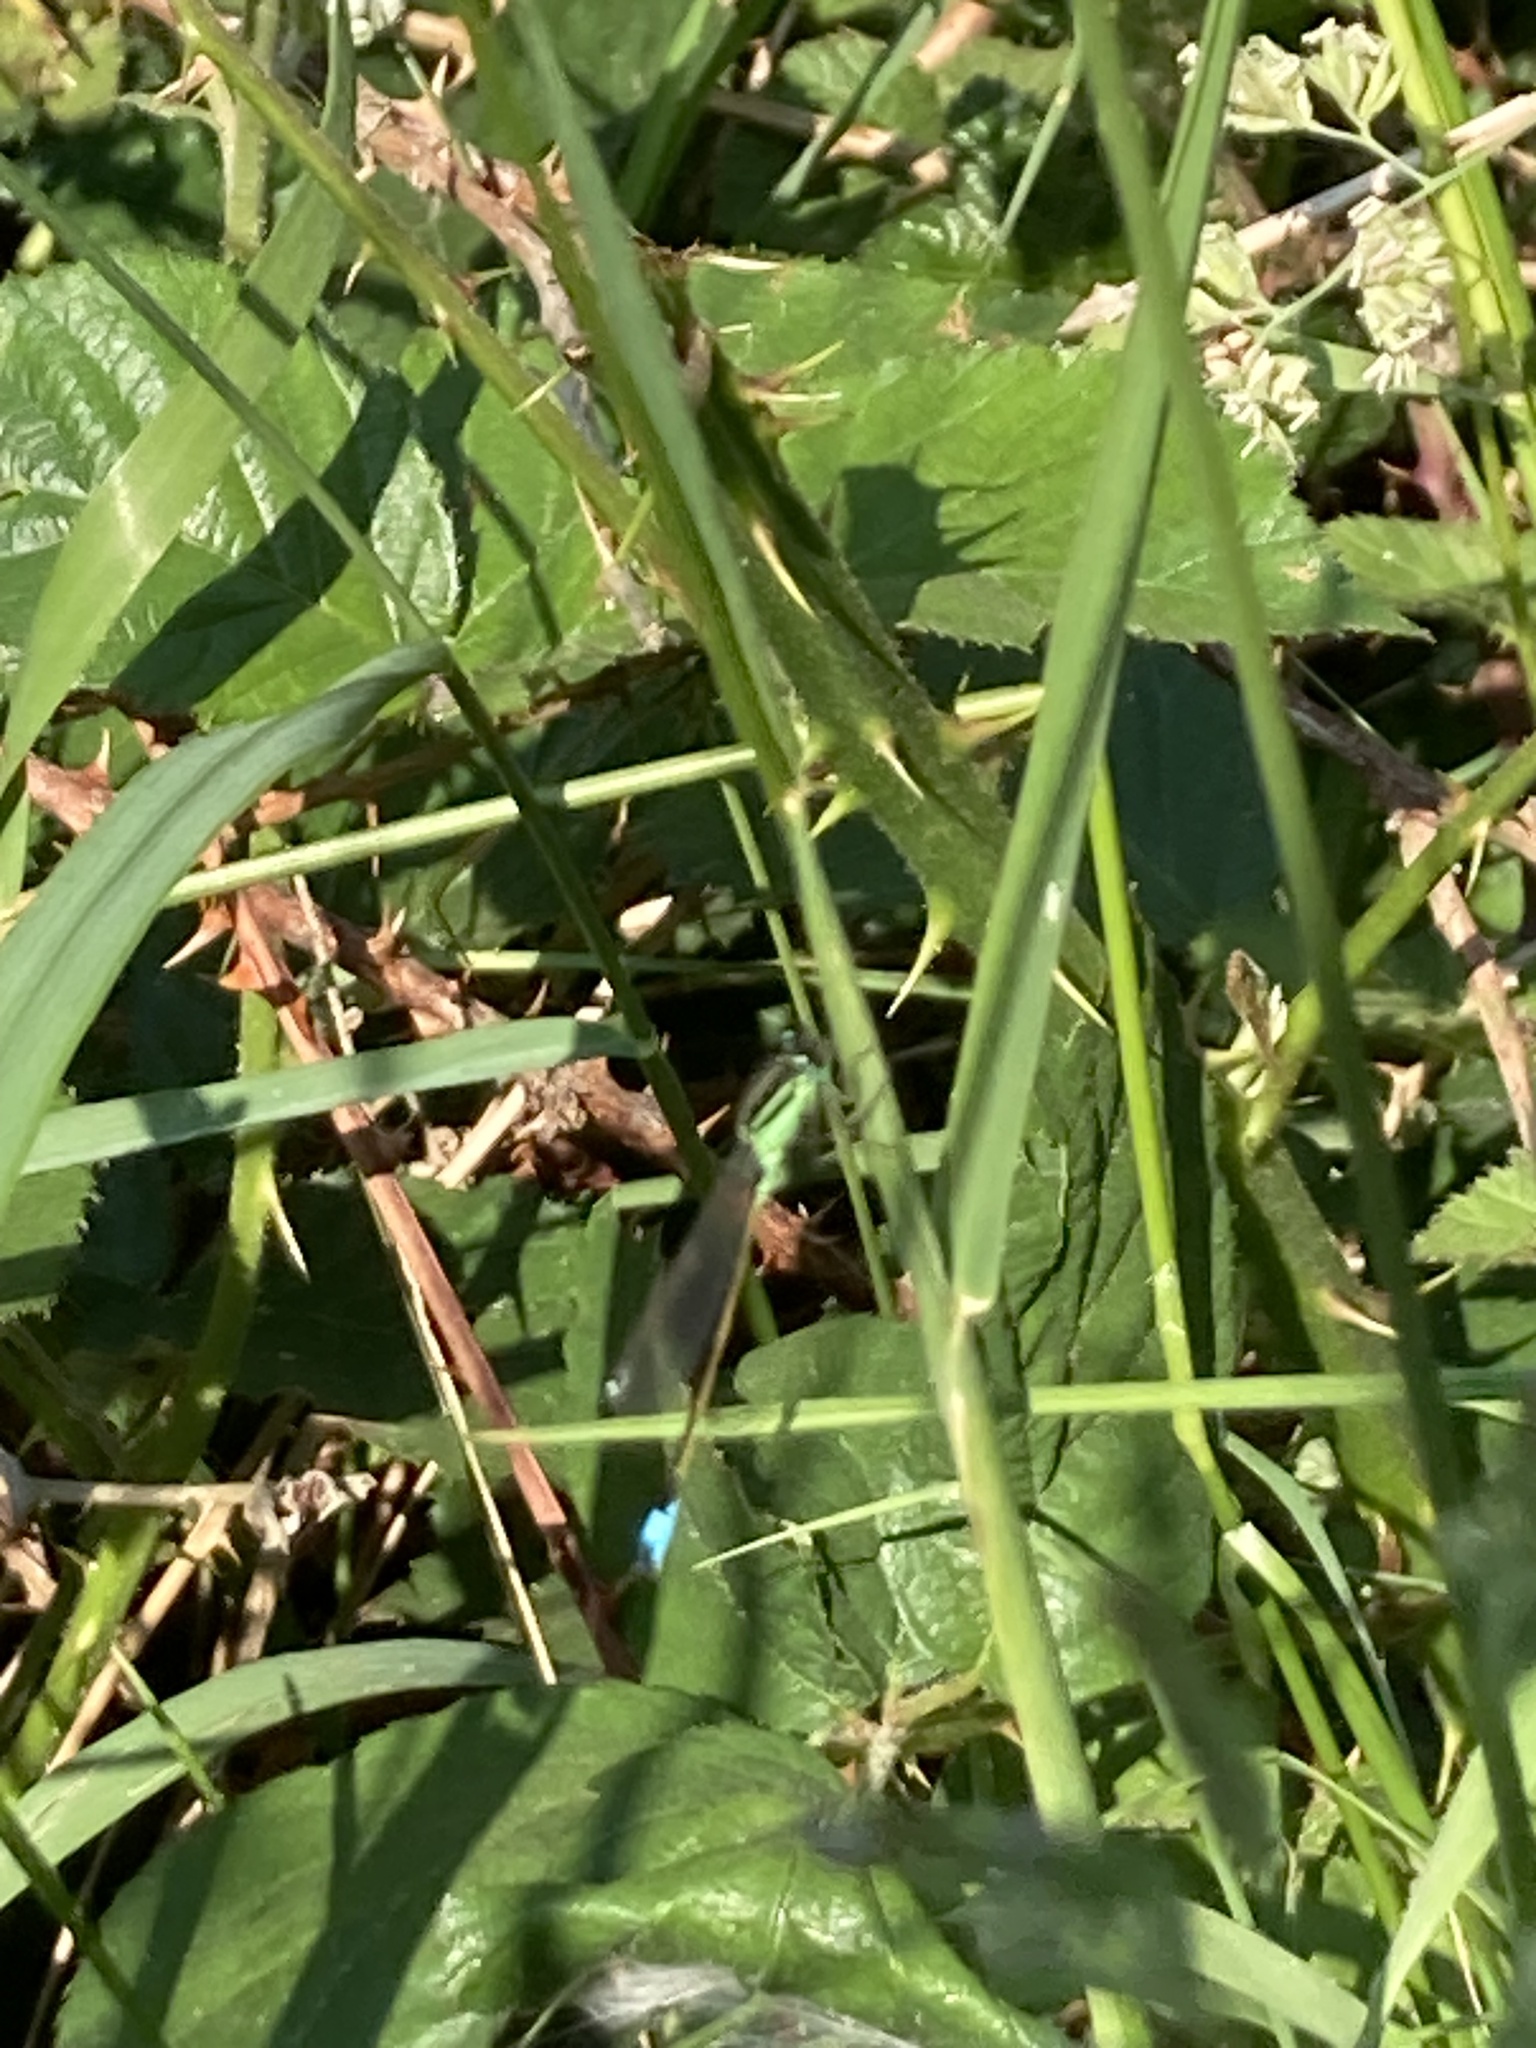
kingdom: Animalia
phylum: Arthropoda
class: Insecta
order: Odonata
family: Coenagrionidae
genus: Ischnura
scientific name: Ischnura elegans
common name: Blue-tailed damselfly
